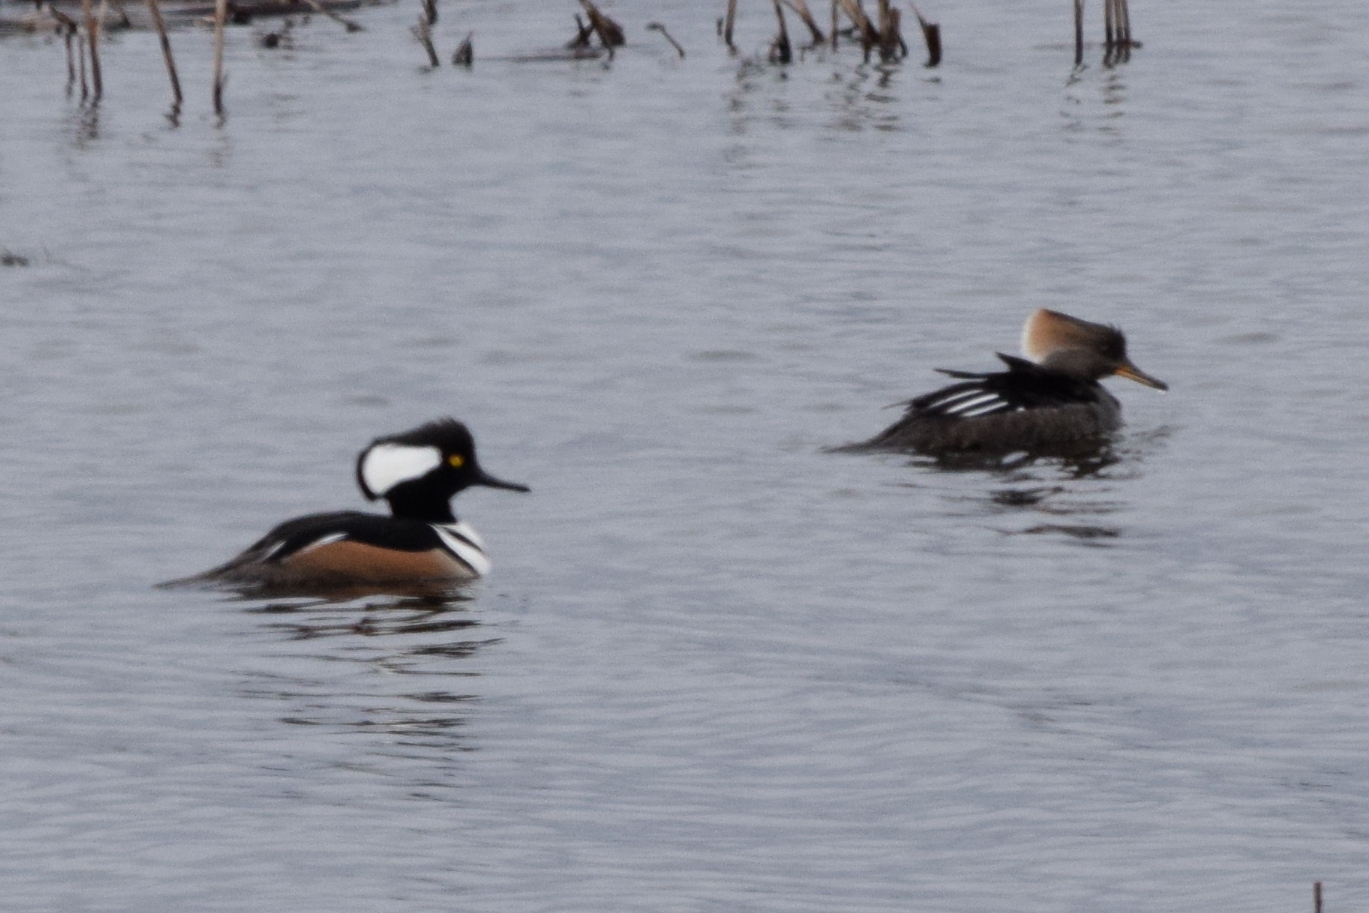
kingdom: Animalia
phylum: Chordata
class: Aves
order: Anseriformes
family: Anatidae
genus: Lophodytes
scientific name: Lophodytes cucullatus
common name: Hooded merganser
